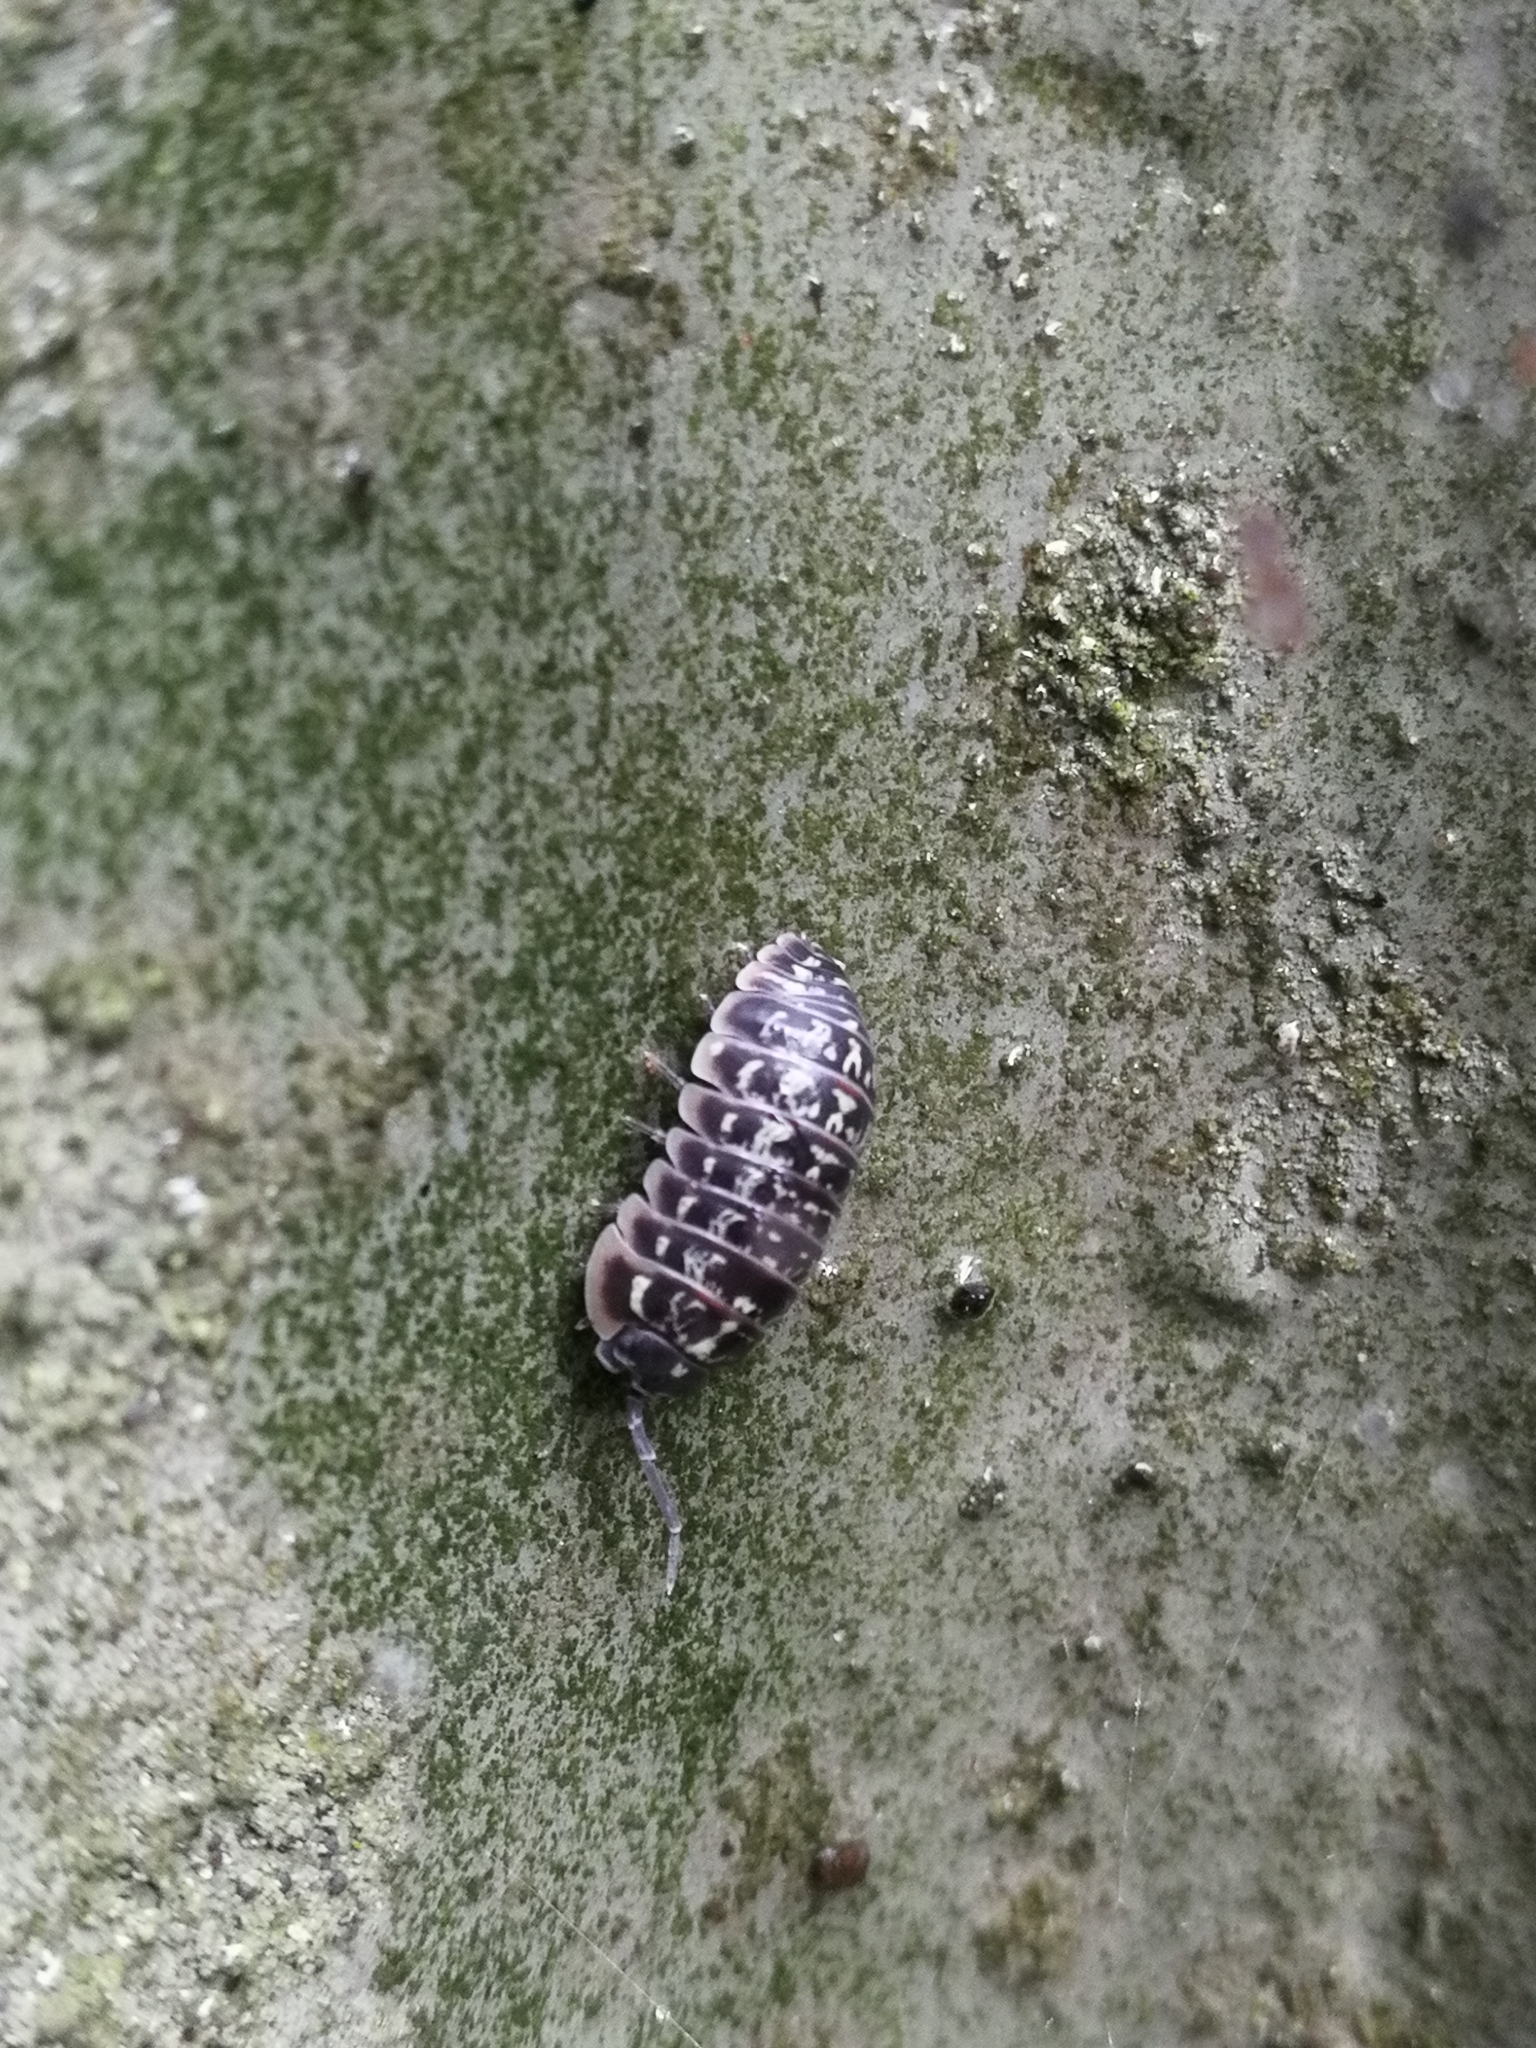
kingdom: Animalia
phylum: Arthropoda
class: Malacostraca
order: Isopoda
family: Armadillidiidae
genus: Armadillidium
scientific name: Armadillidium versicolor
